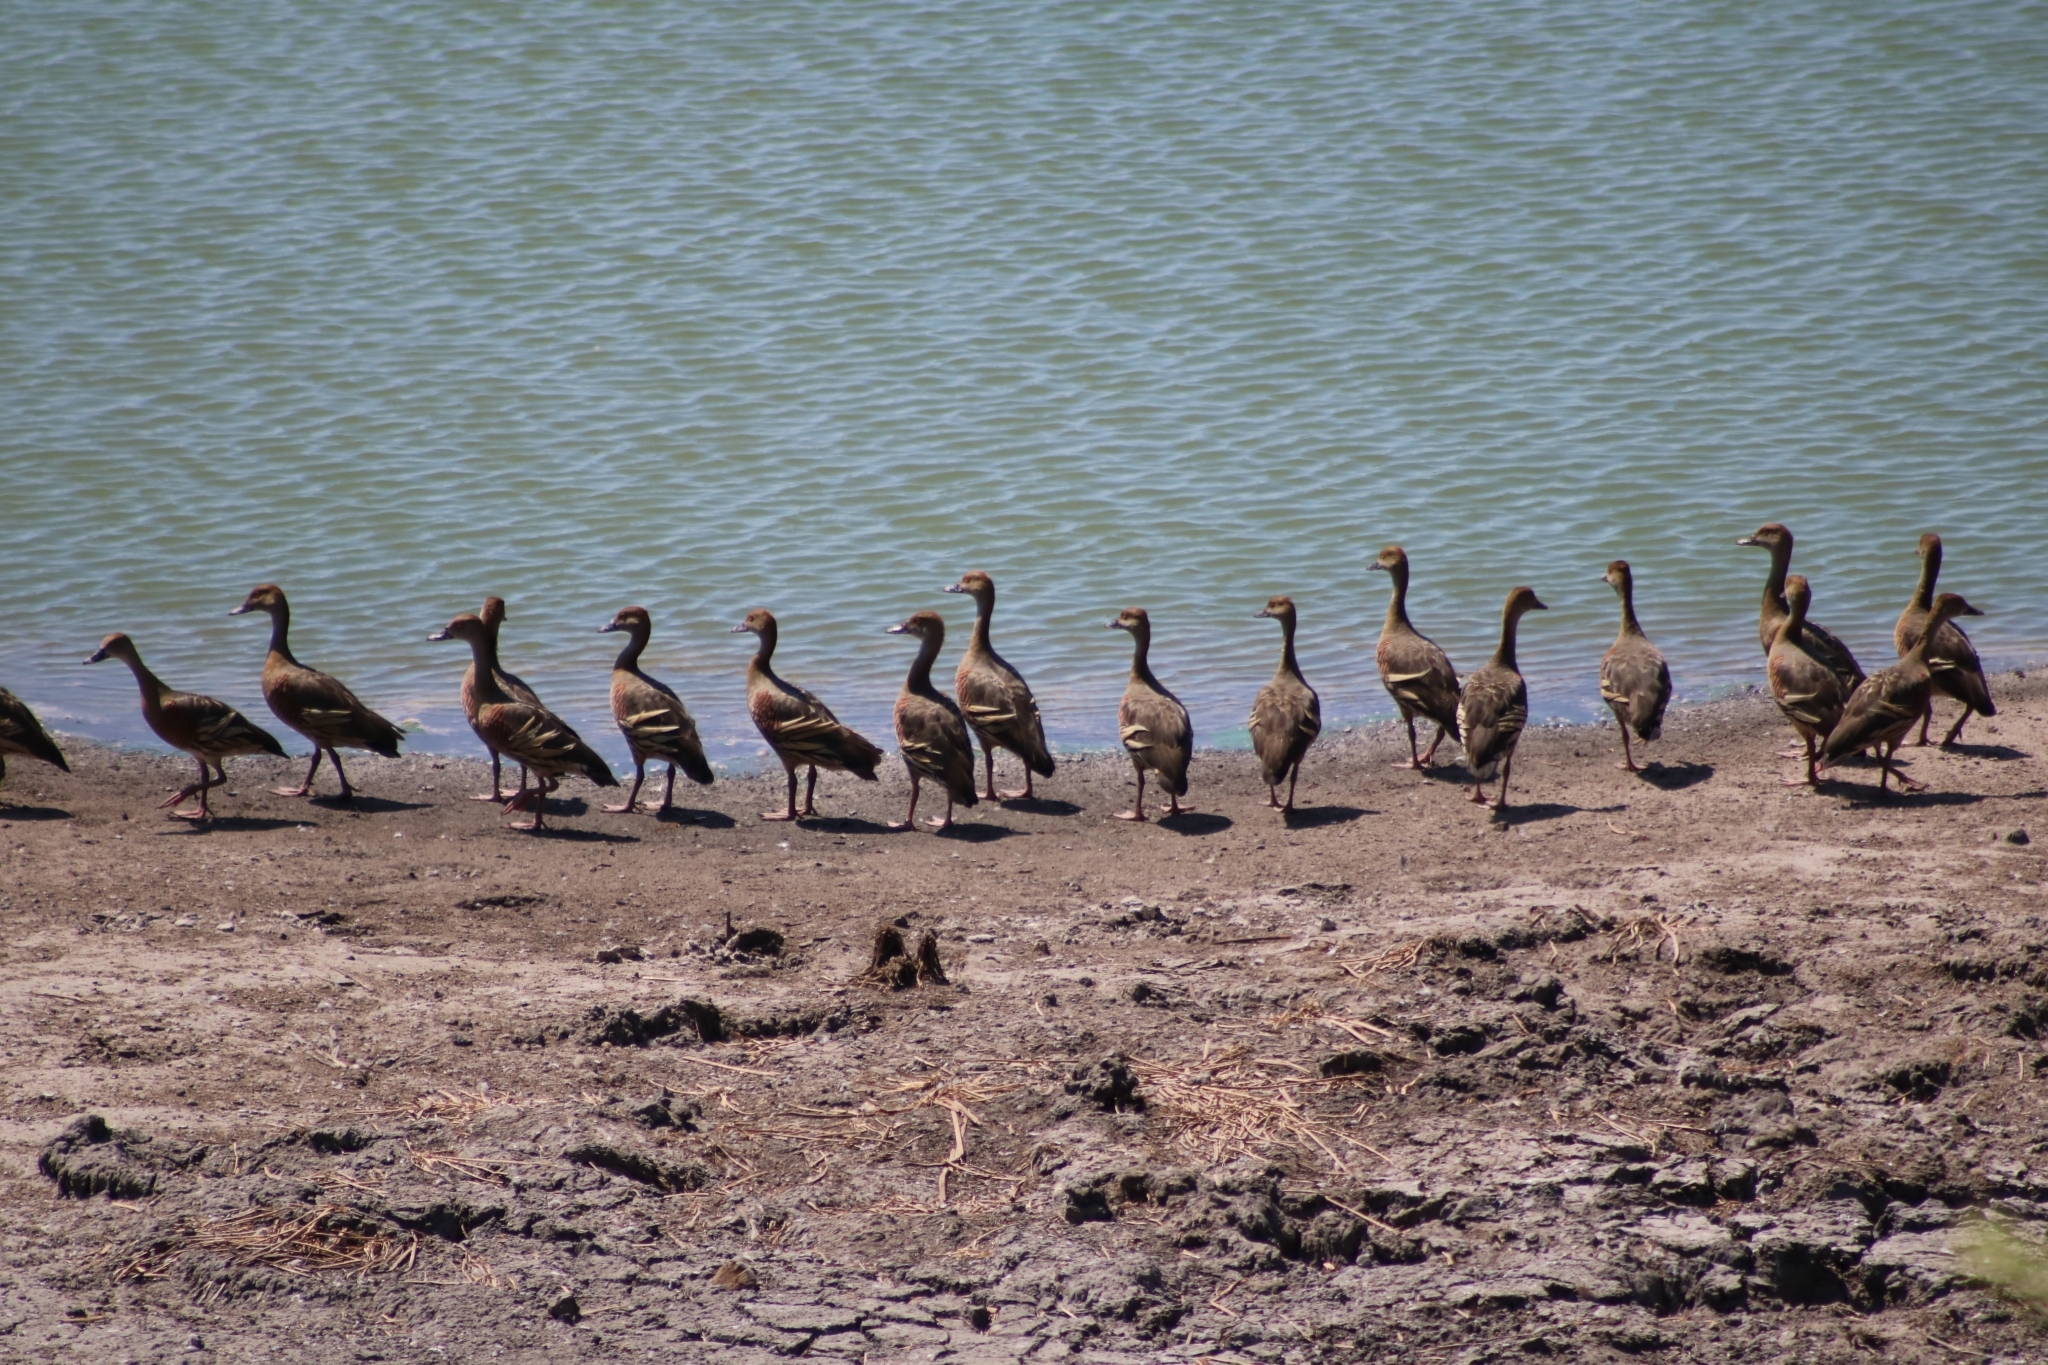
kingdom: Animalia
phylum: Chordata
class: Aves
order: Anseriformes
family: Anatidae
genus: Dendrocygna
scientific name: Dendrocygna eytoni
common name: Plumed whistling-duck
